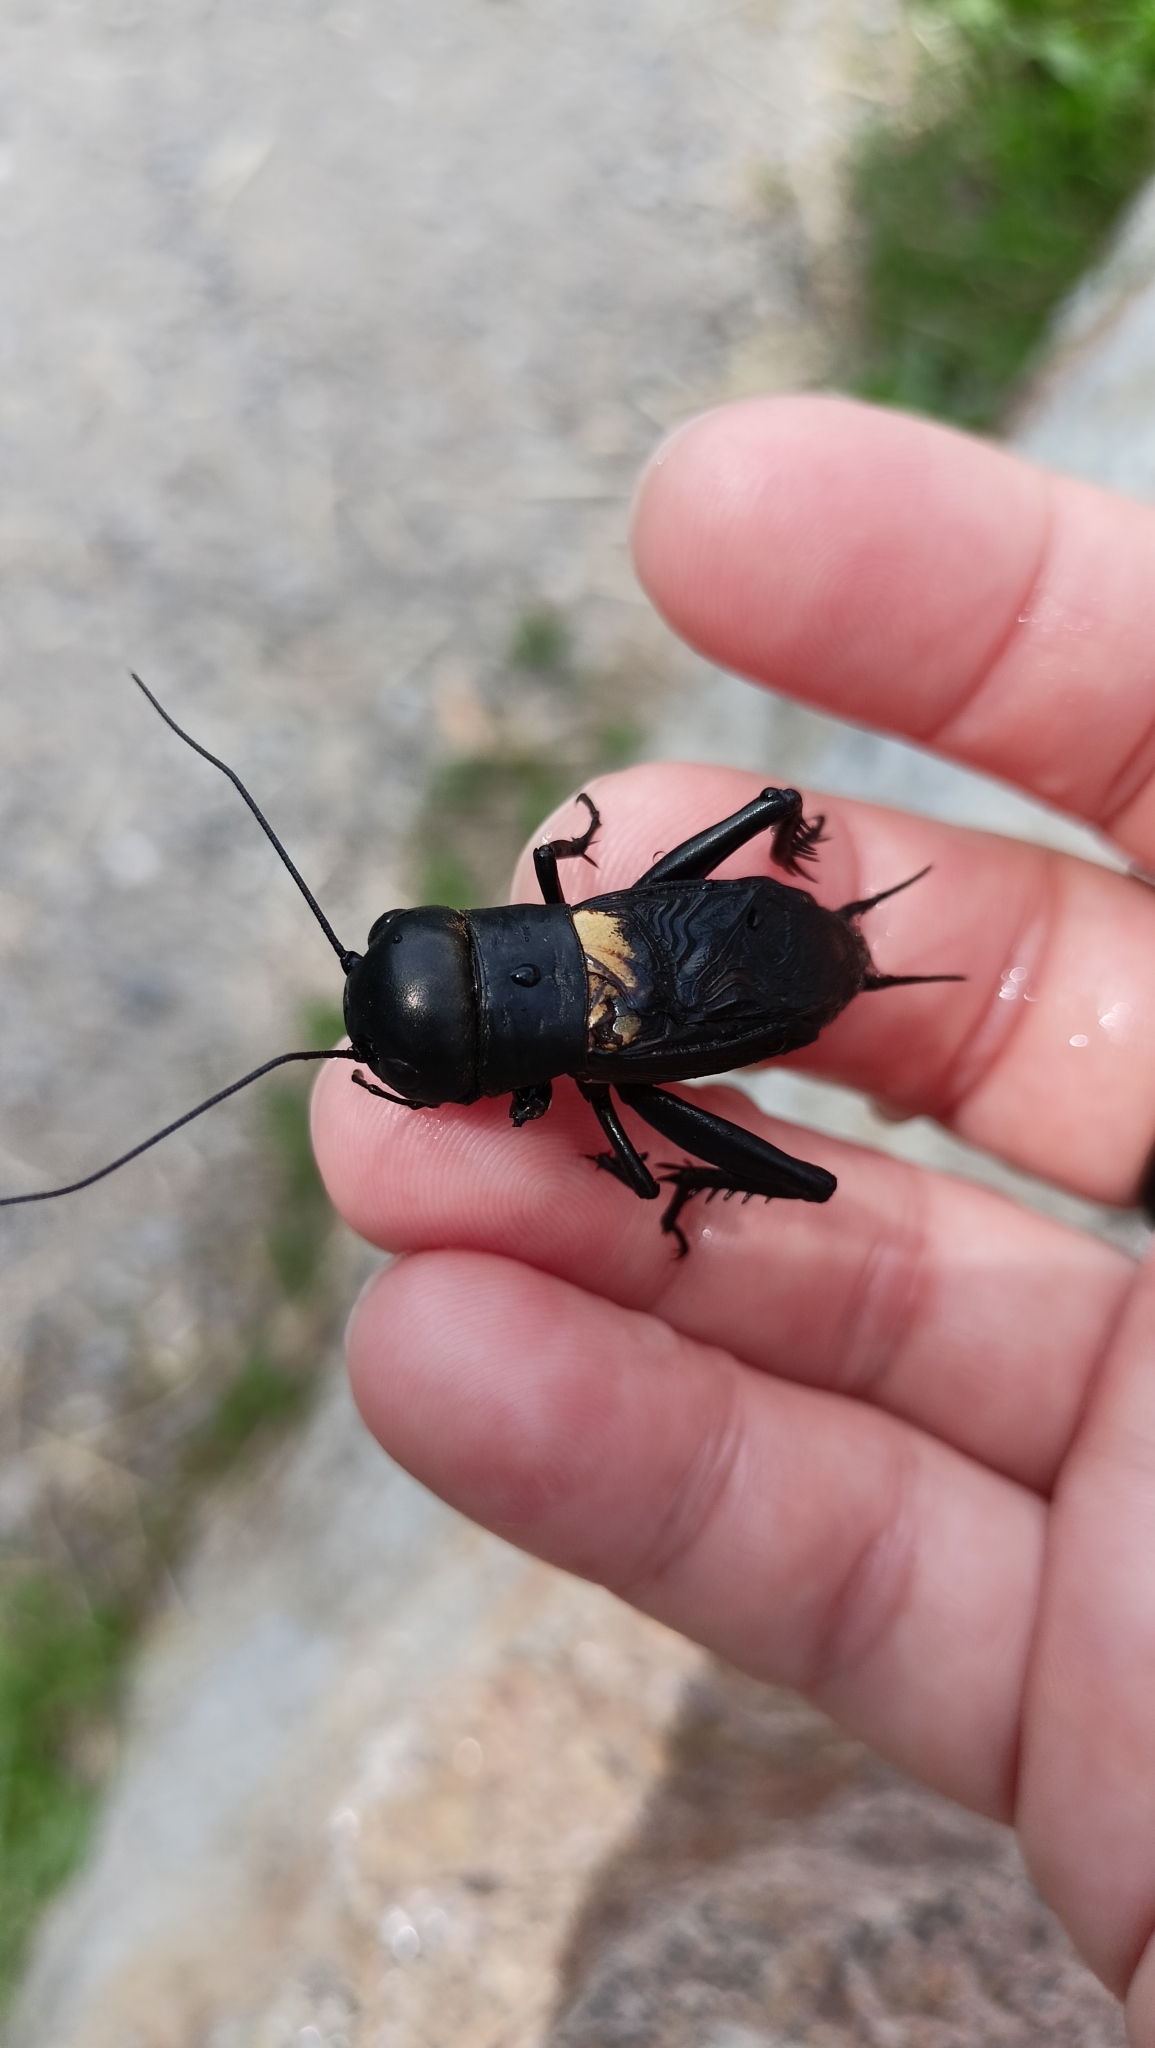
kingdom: Animalia
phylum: Arthropoda
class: Insecta
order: Orthoptera
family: Gryllidae
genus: Gryllus
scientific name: Gryllus campestris
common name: Field cricket
